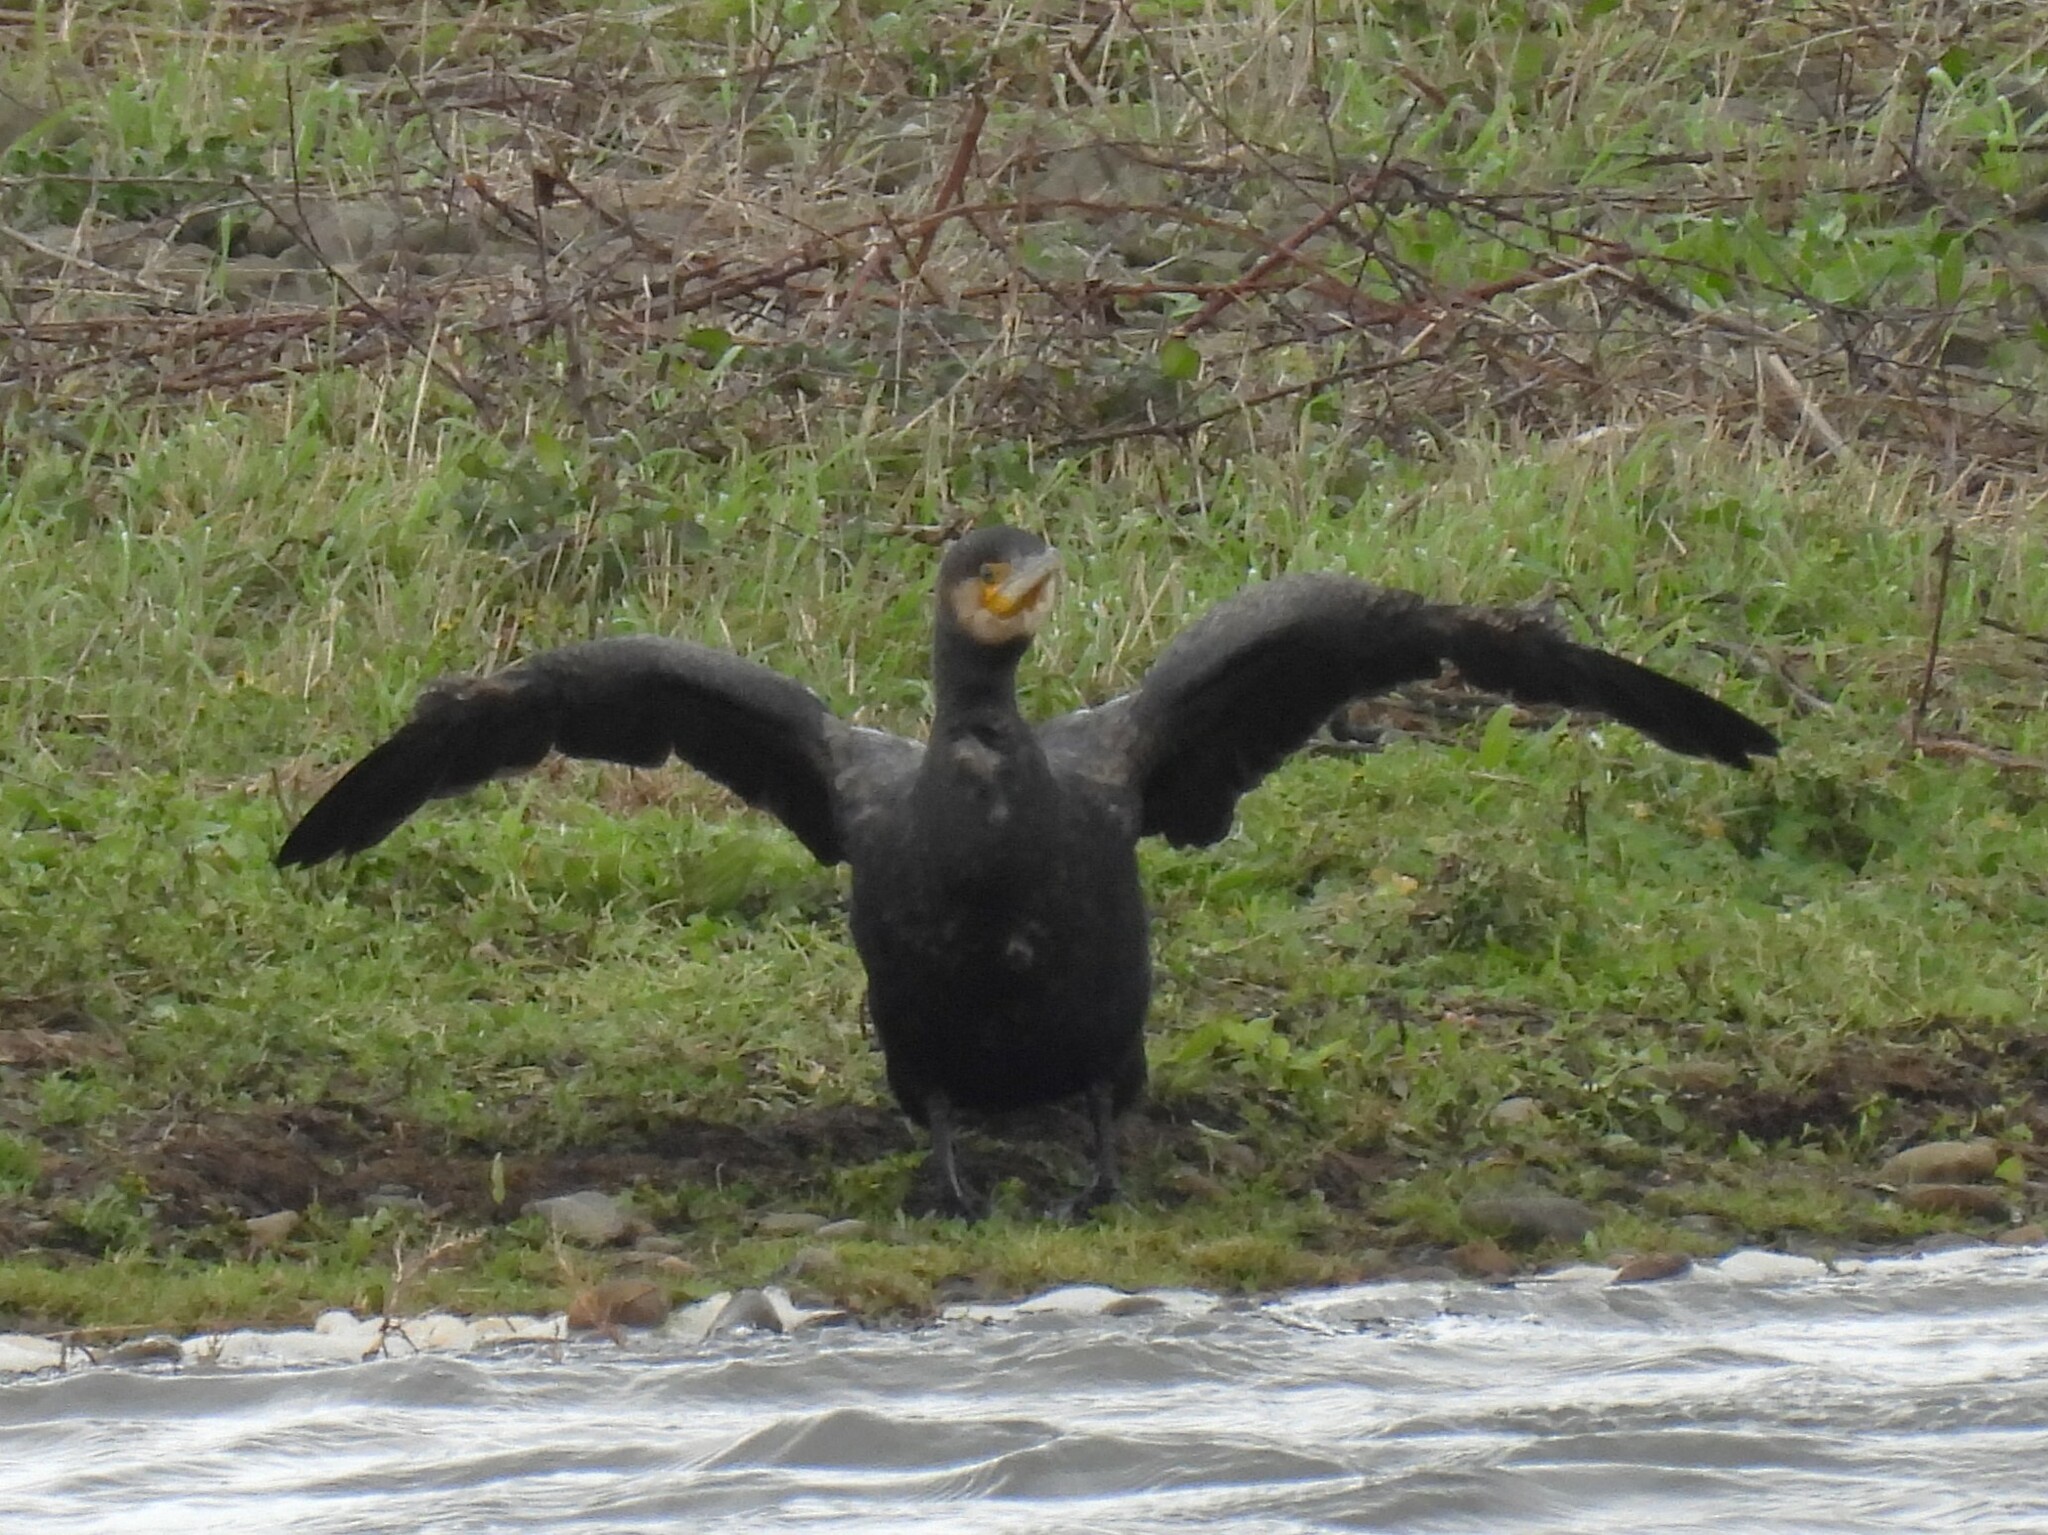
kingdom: Animalia
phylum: Chordata
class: Aves
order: Suliformes
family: Phalacrocoracidae
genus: Phalacrocorax
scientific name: Phalacrocorax carbo
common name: Great cormorant
